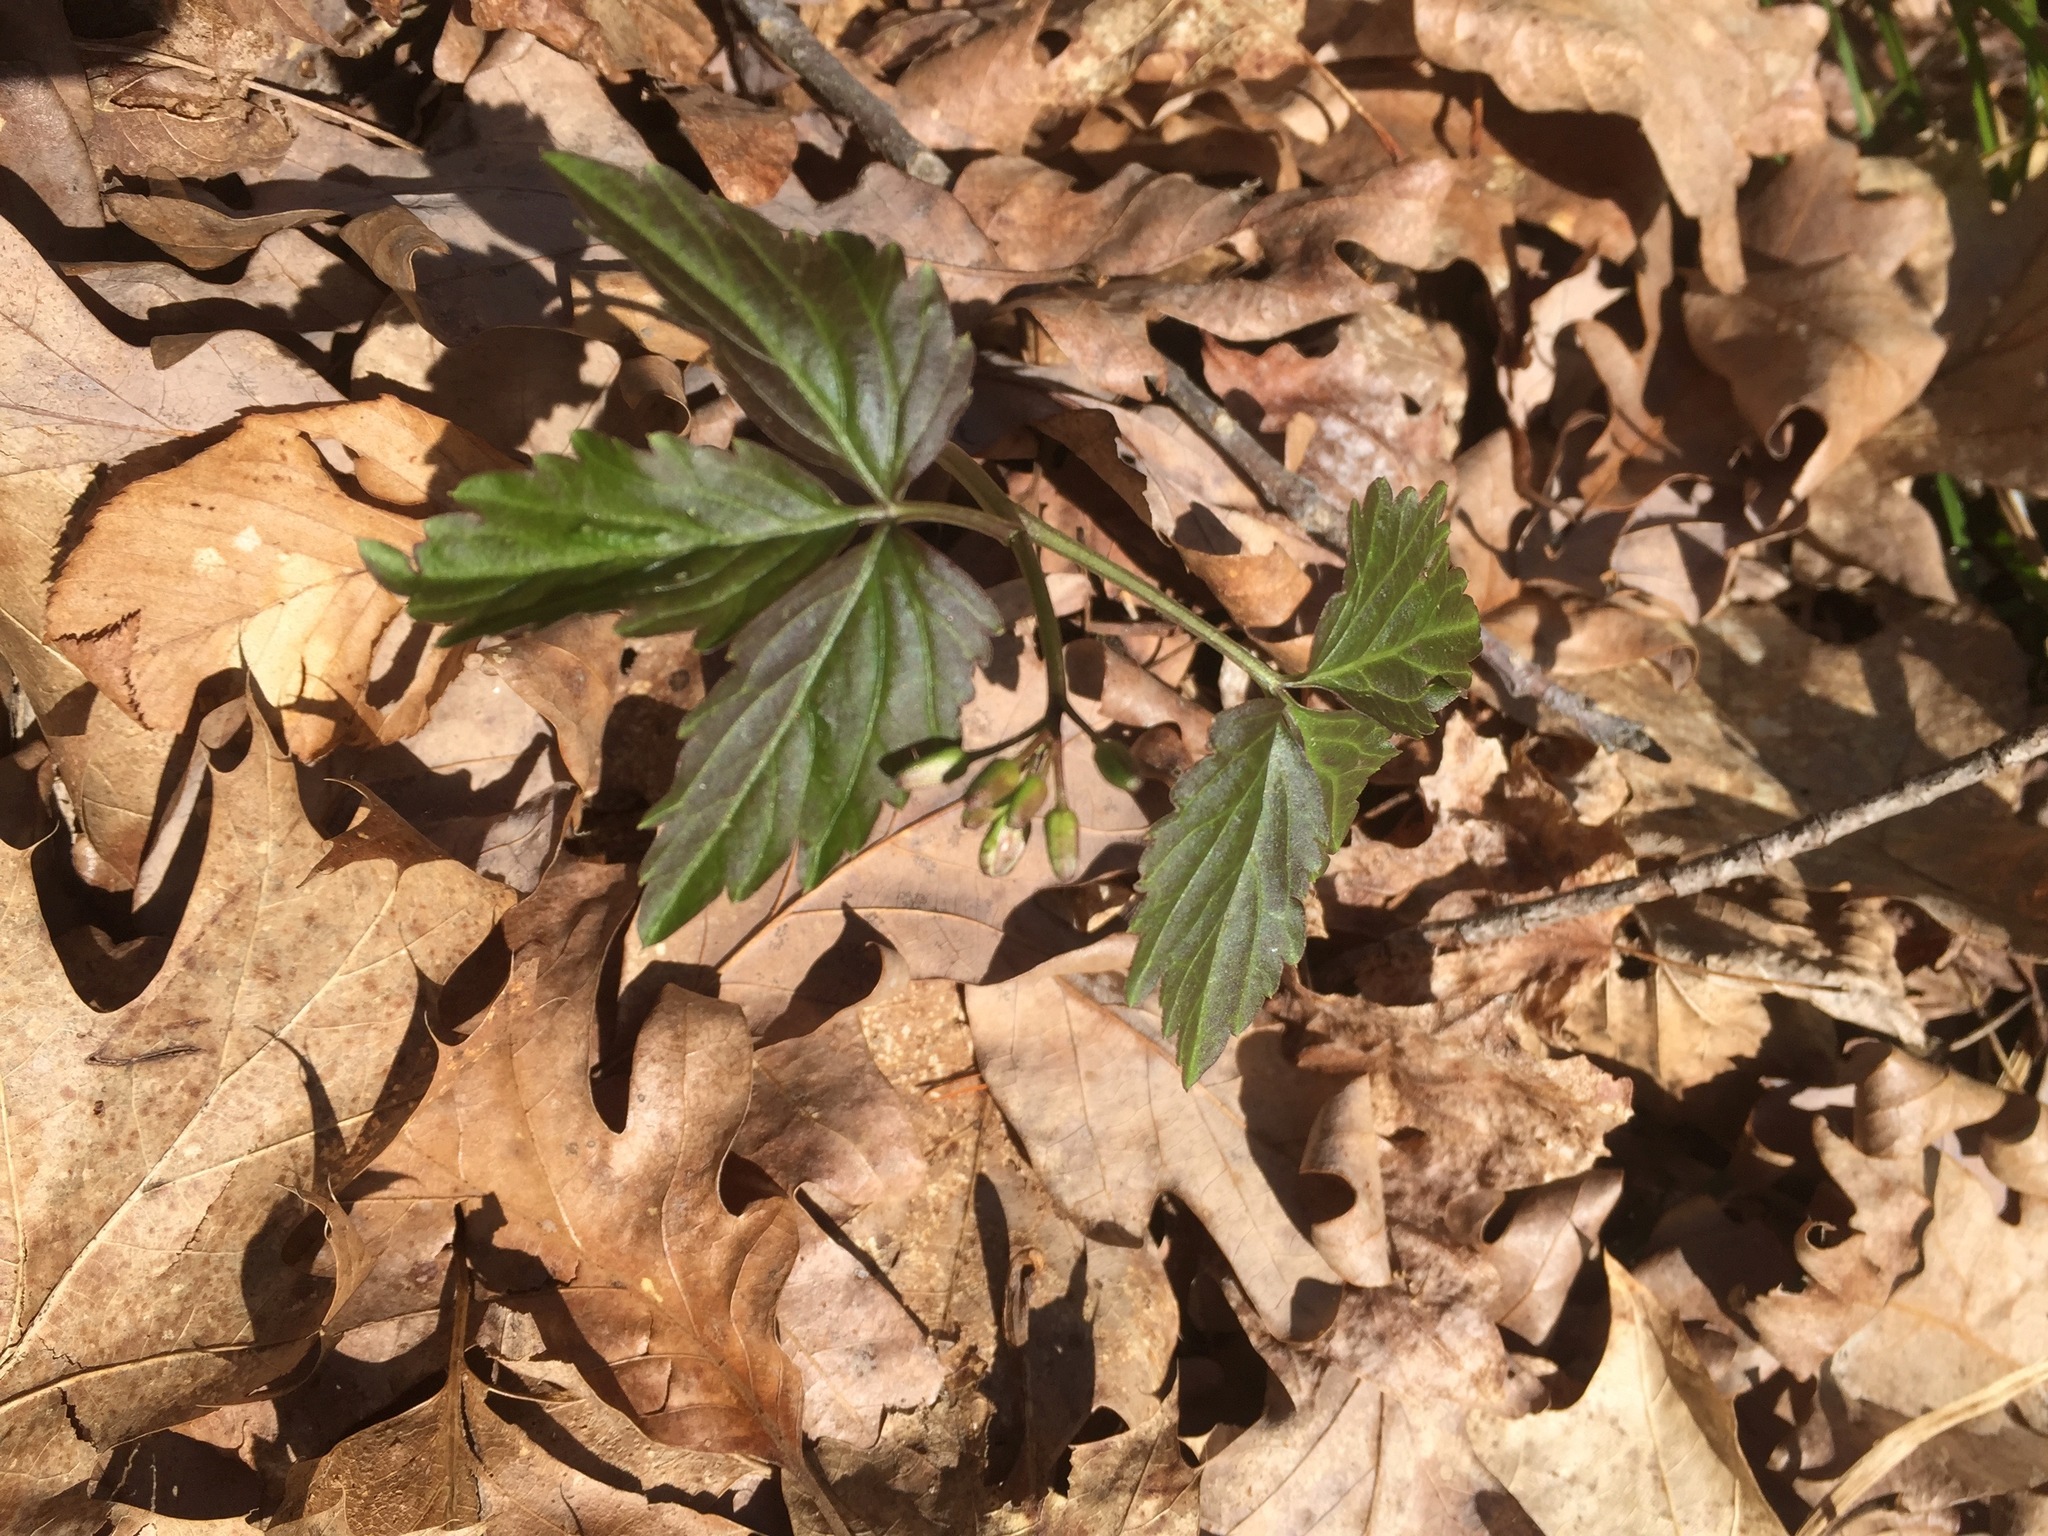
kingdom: Plantae
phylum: Tracheophyta
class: Magnoliopsida
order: Brassicales
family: Brassicaceae
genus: Cardamine
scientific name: Cardamine diphylla
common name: Broad-leaved toothwort
